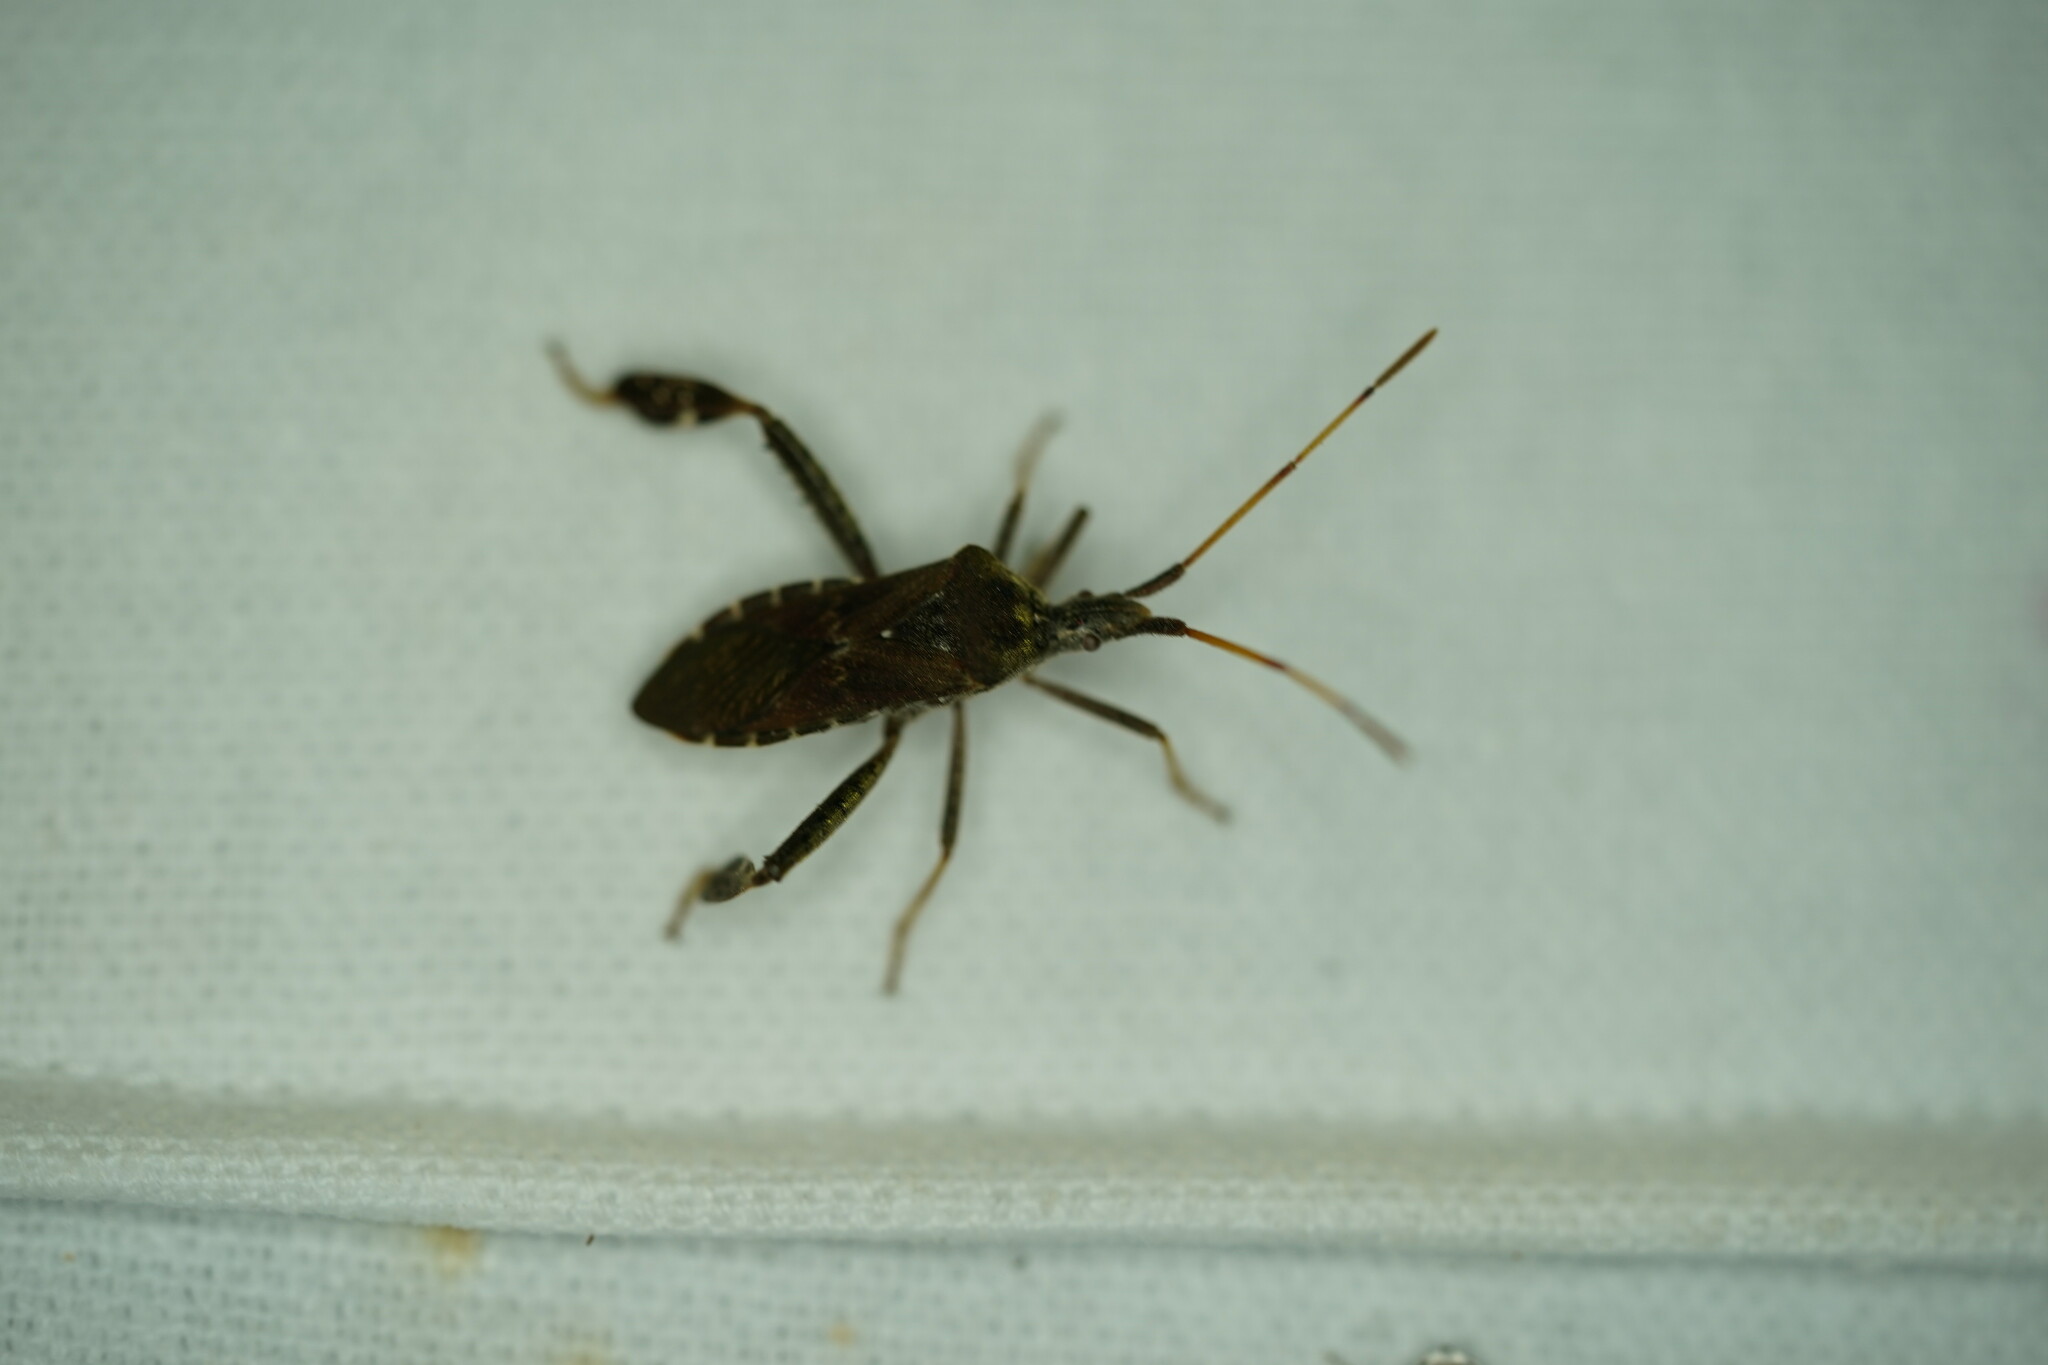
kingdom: Animalia
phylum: Arthropoda
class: Insecta
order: Hemiptera
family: Coreidae
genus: Leptoglossus
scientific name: Leptoglossus corculus
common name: Southern pine seed bug
